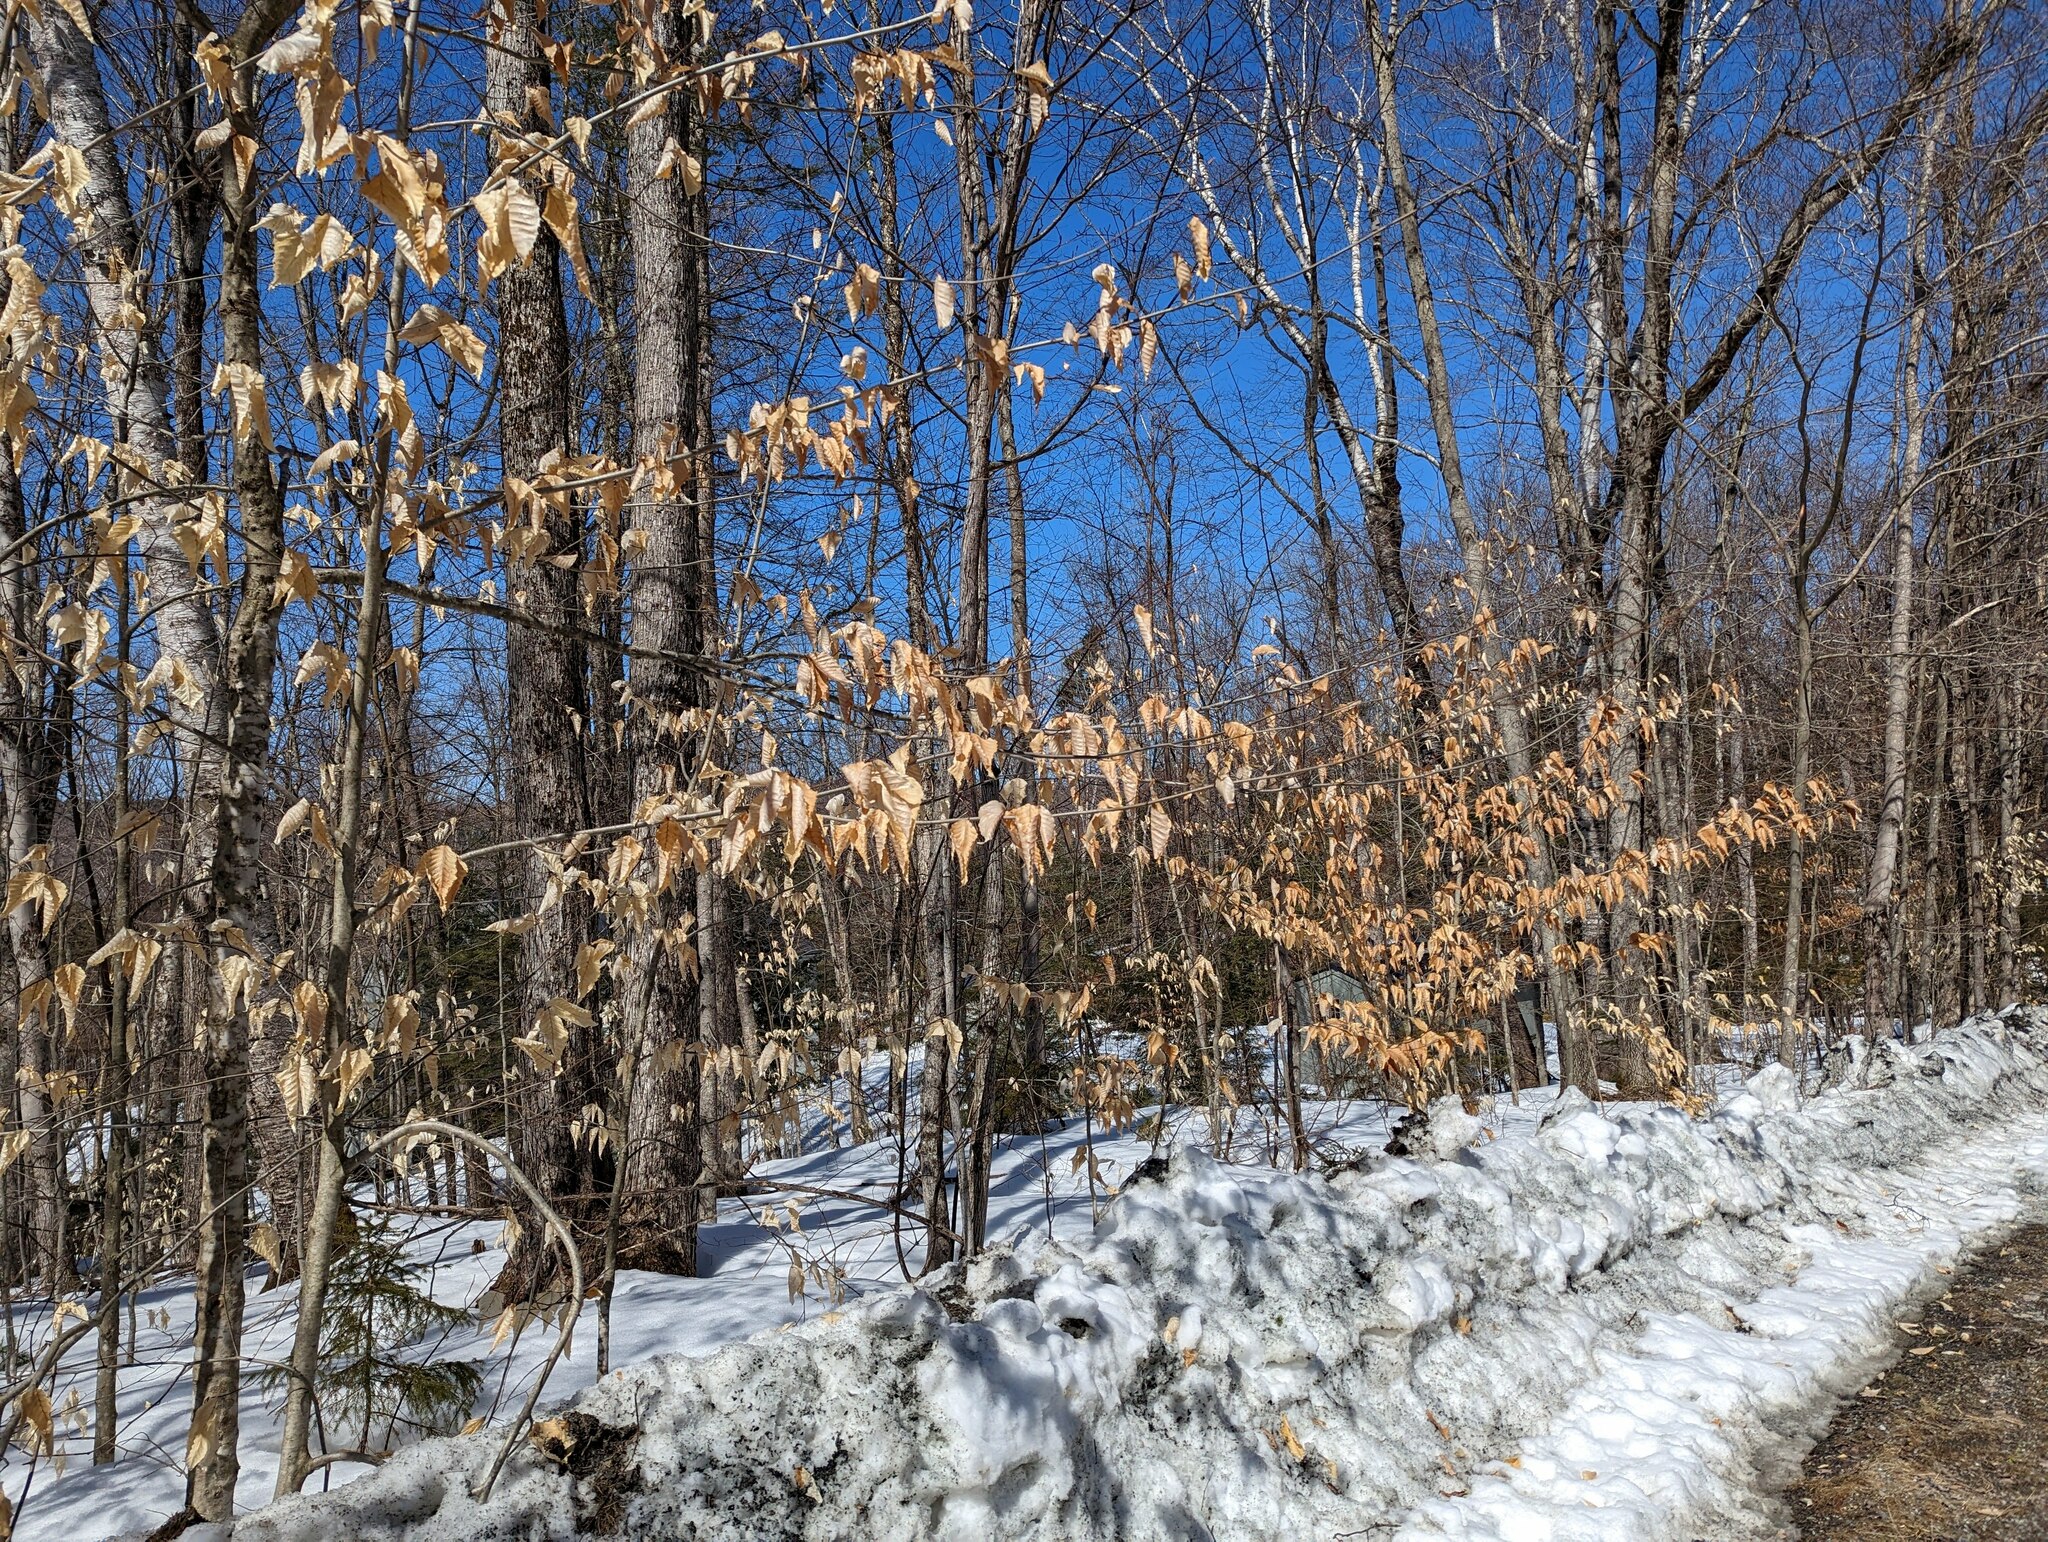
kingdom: Plantae
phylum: Tracheophyta
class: Magnoliopsida
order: Fagales
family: Fagaceae
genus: Fagus
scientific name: Fagus grandifolia
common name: American beech
